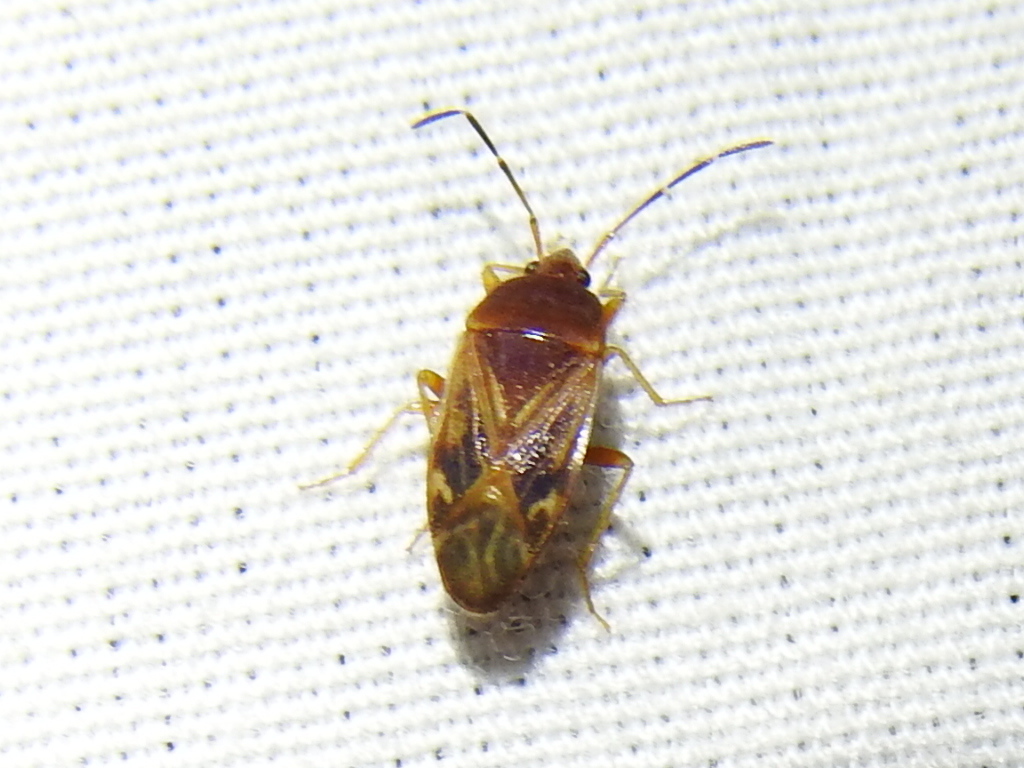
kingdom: Animalia
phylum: Arthropoda
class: Insecta
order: Hemiptera
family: Rhyparochromidae
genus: Paragonatas
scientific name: Paragonatas divergens
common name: Seed bug
